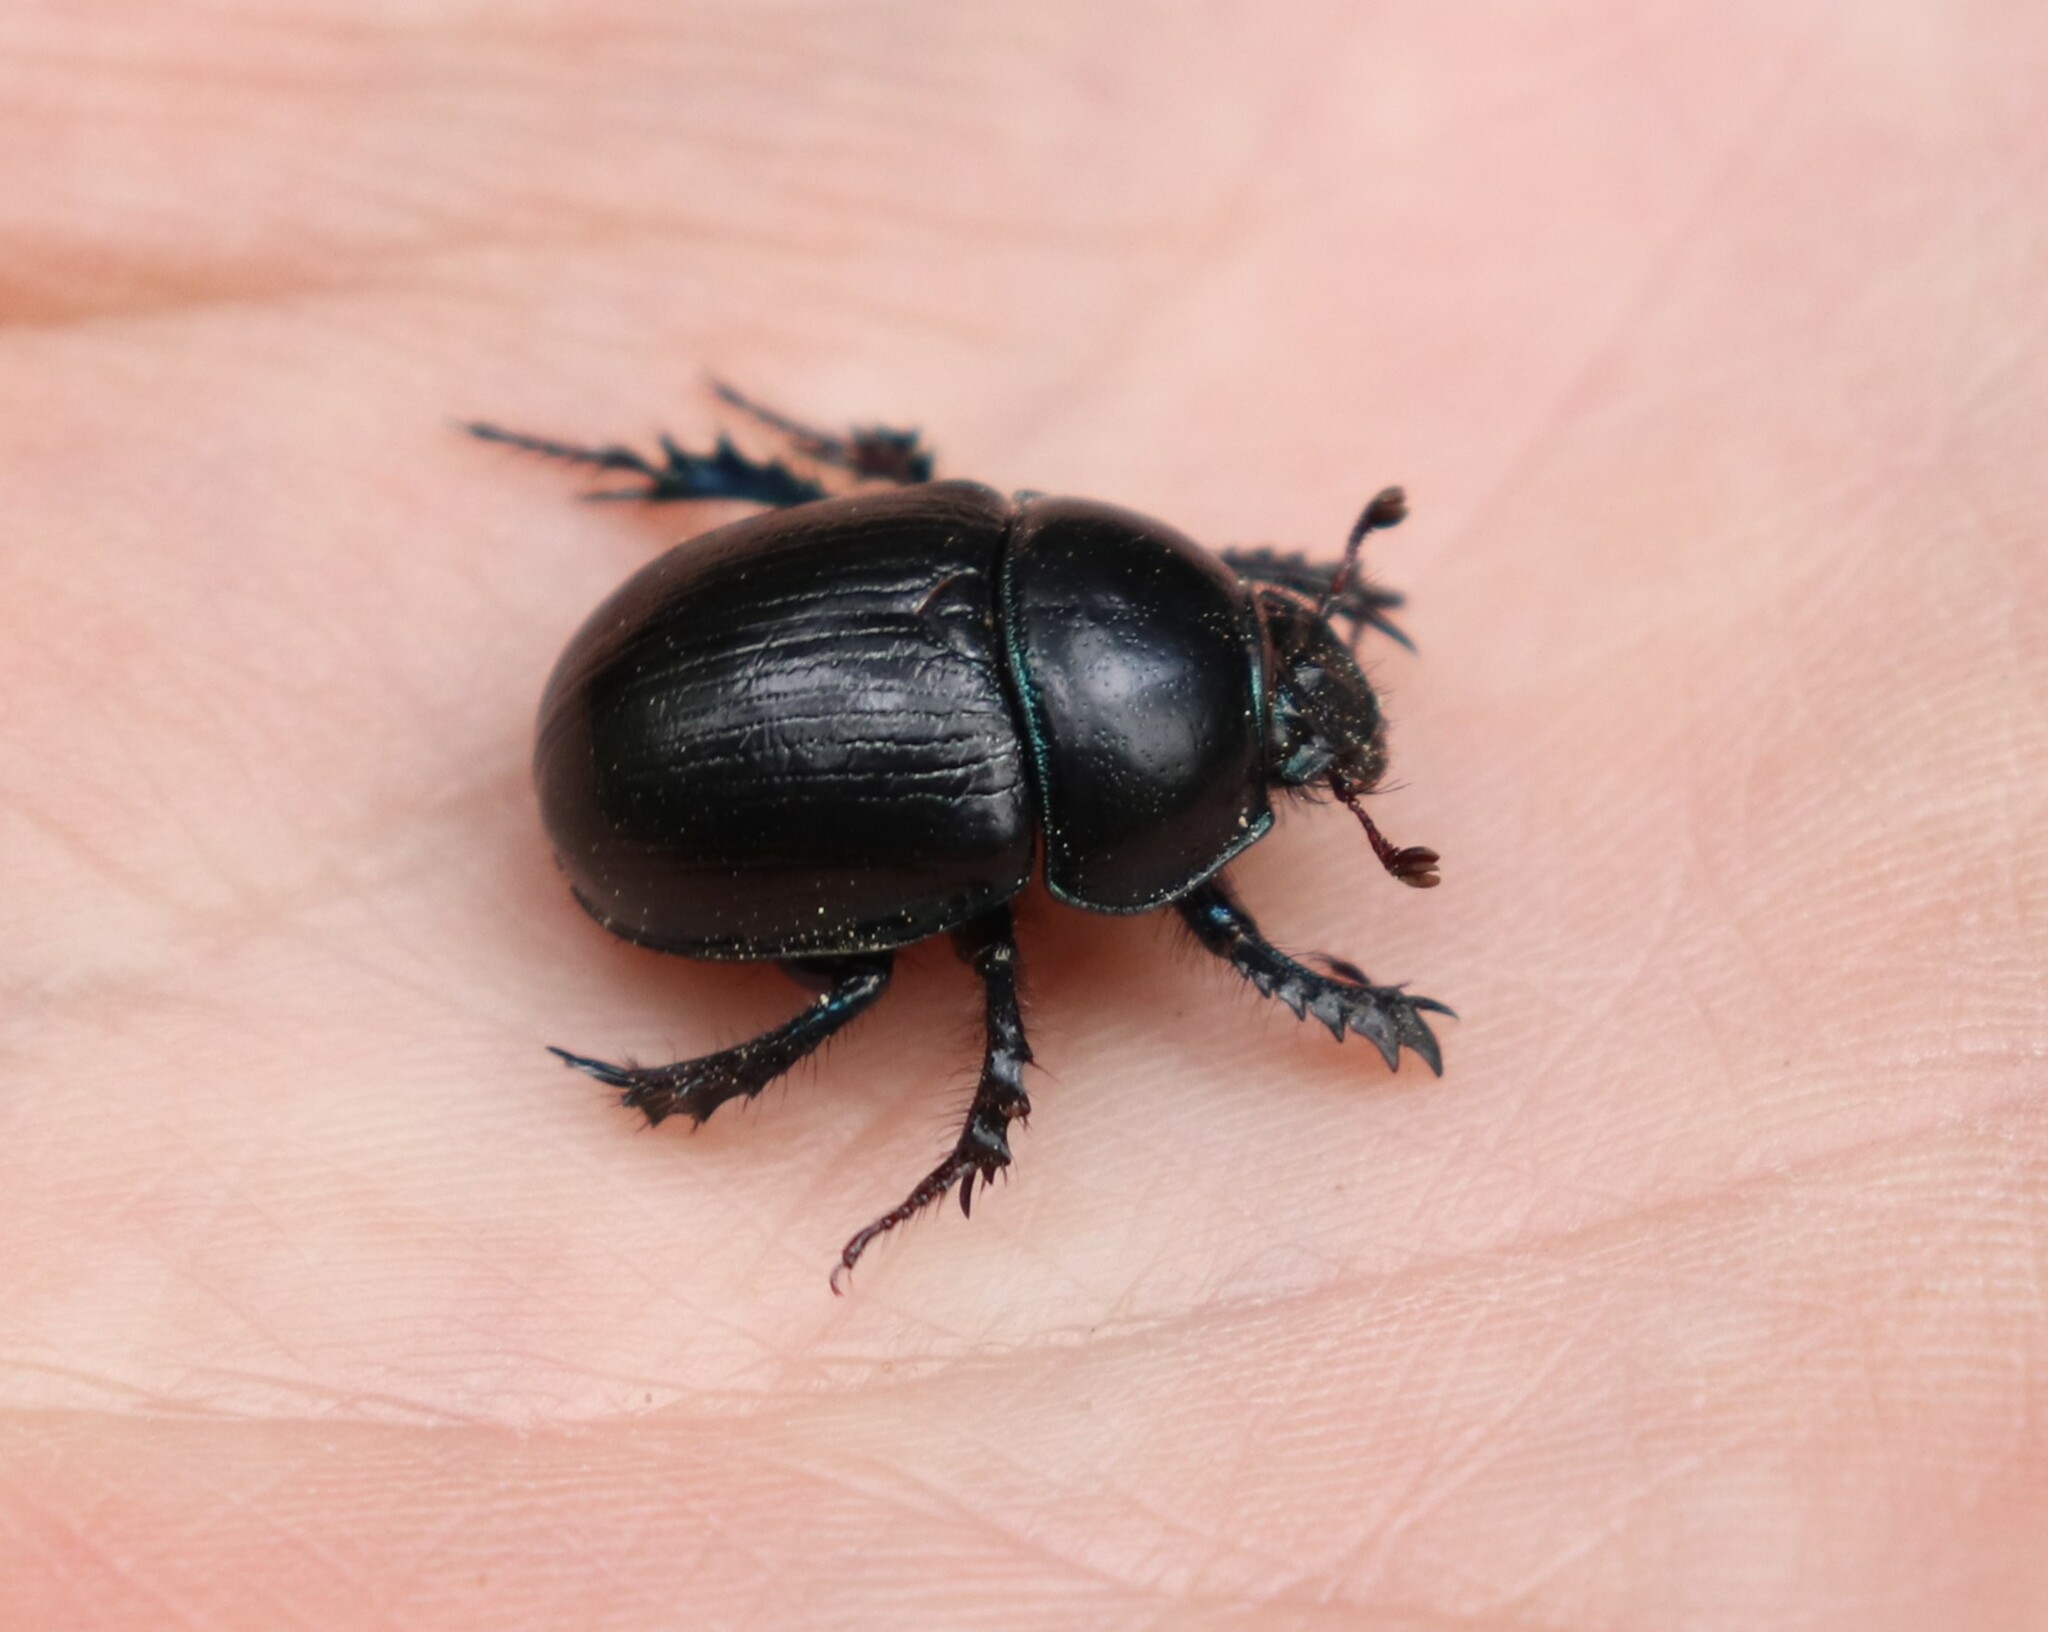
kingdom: Animalia
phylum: Arthropoda
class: Insecta
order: Coleoptera
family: Geotrupidae
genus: Anoplotrupes
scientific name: Anoplotrupes stercorosus
